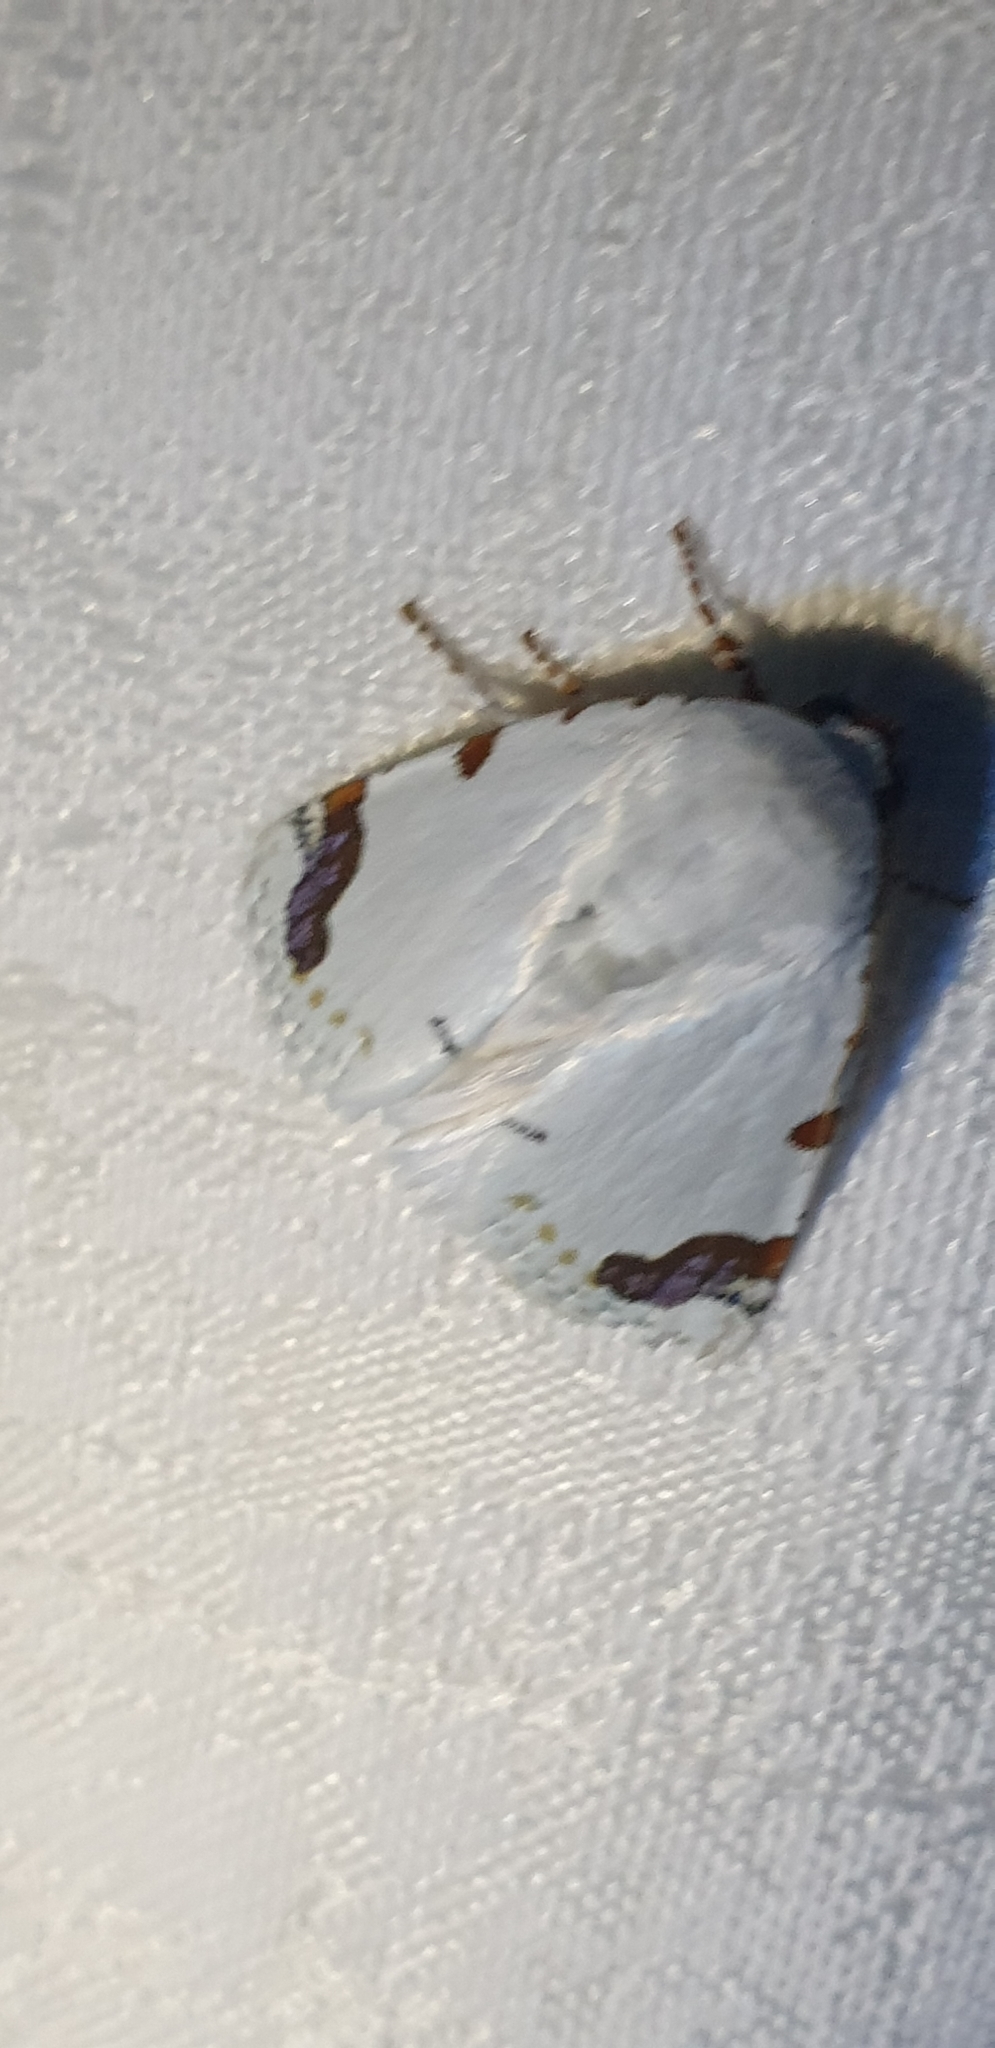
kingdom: Animalia
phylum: Arthropoda
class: Insecta
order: Lepidoptera
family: Noctuidae
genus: Chasmina
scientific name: Chasmina pulchra
